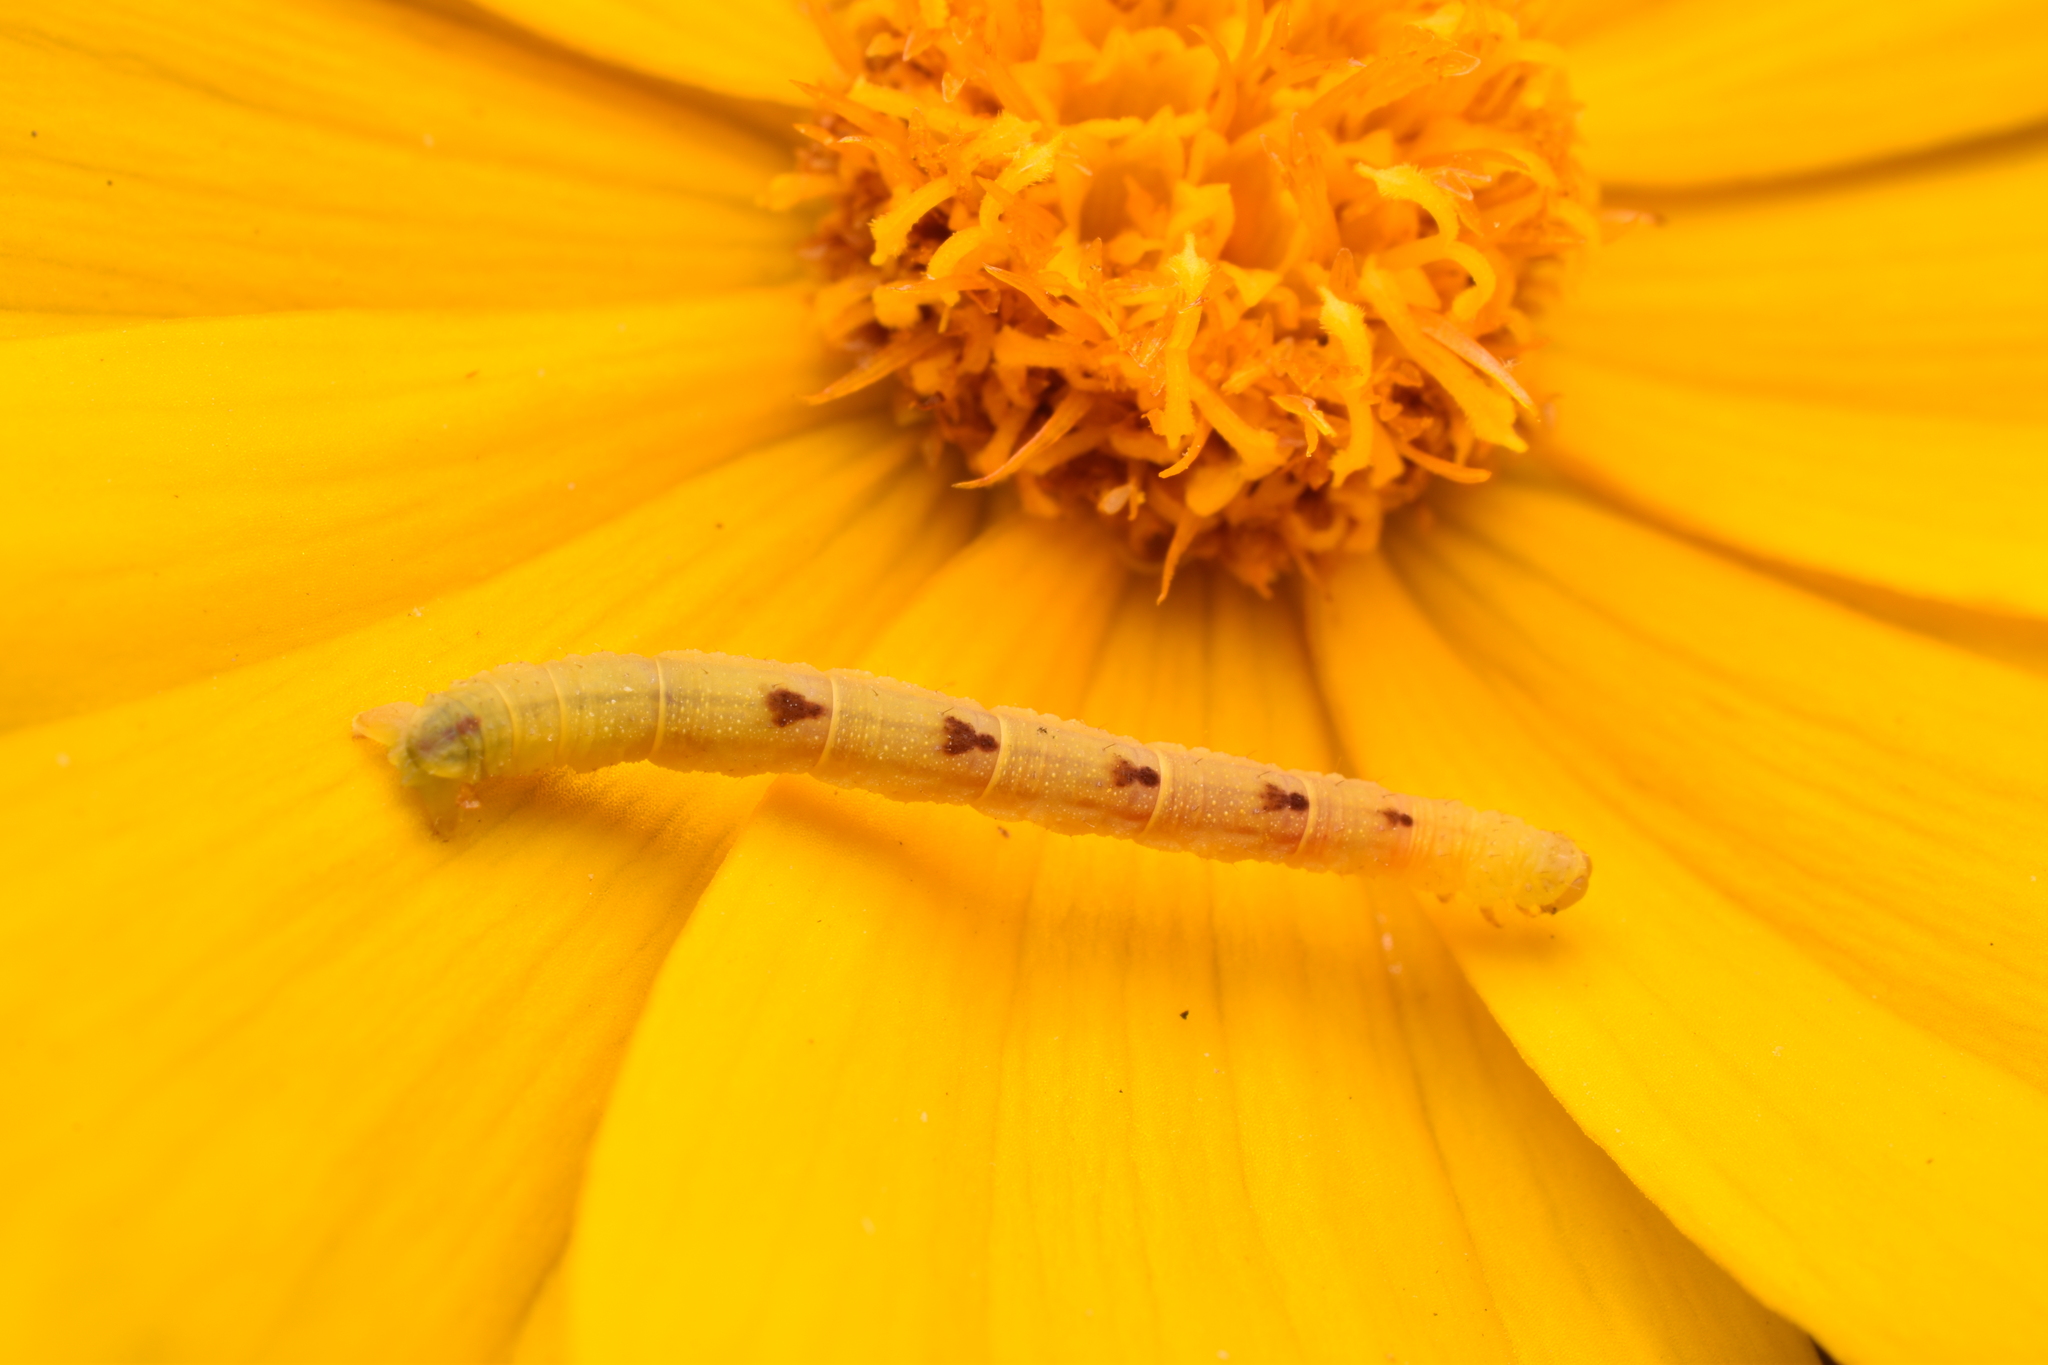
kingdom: Animalia
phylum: Arthropoda
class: Insecta
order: Lepidoptera
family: Geometridae
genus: Eupithecia
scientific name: Eupithecia miserulata
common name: Common eupithecia
